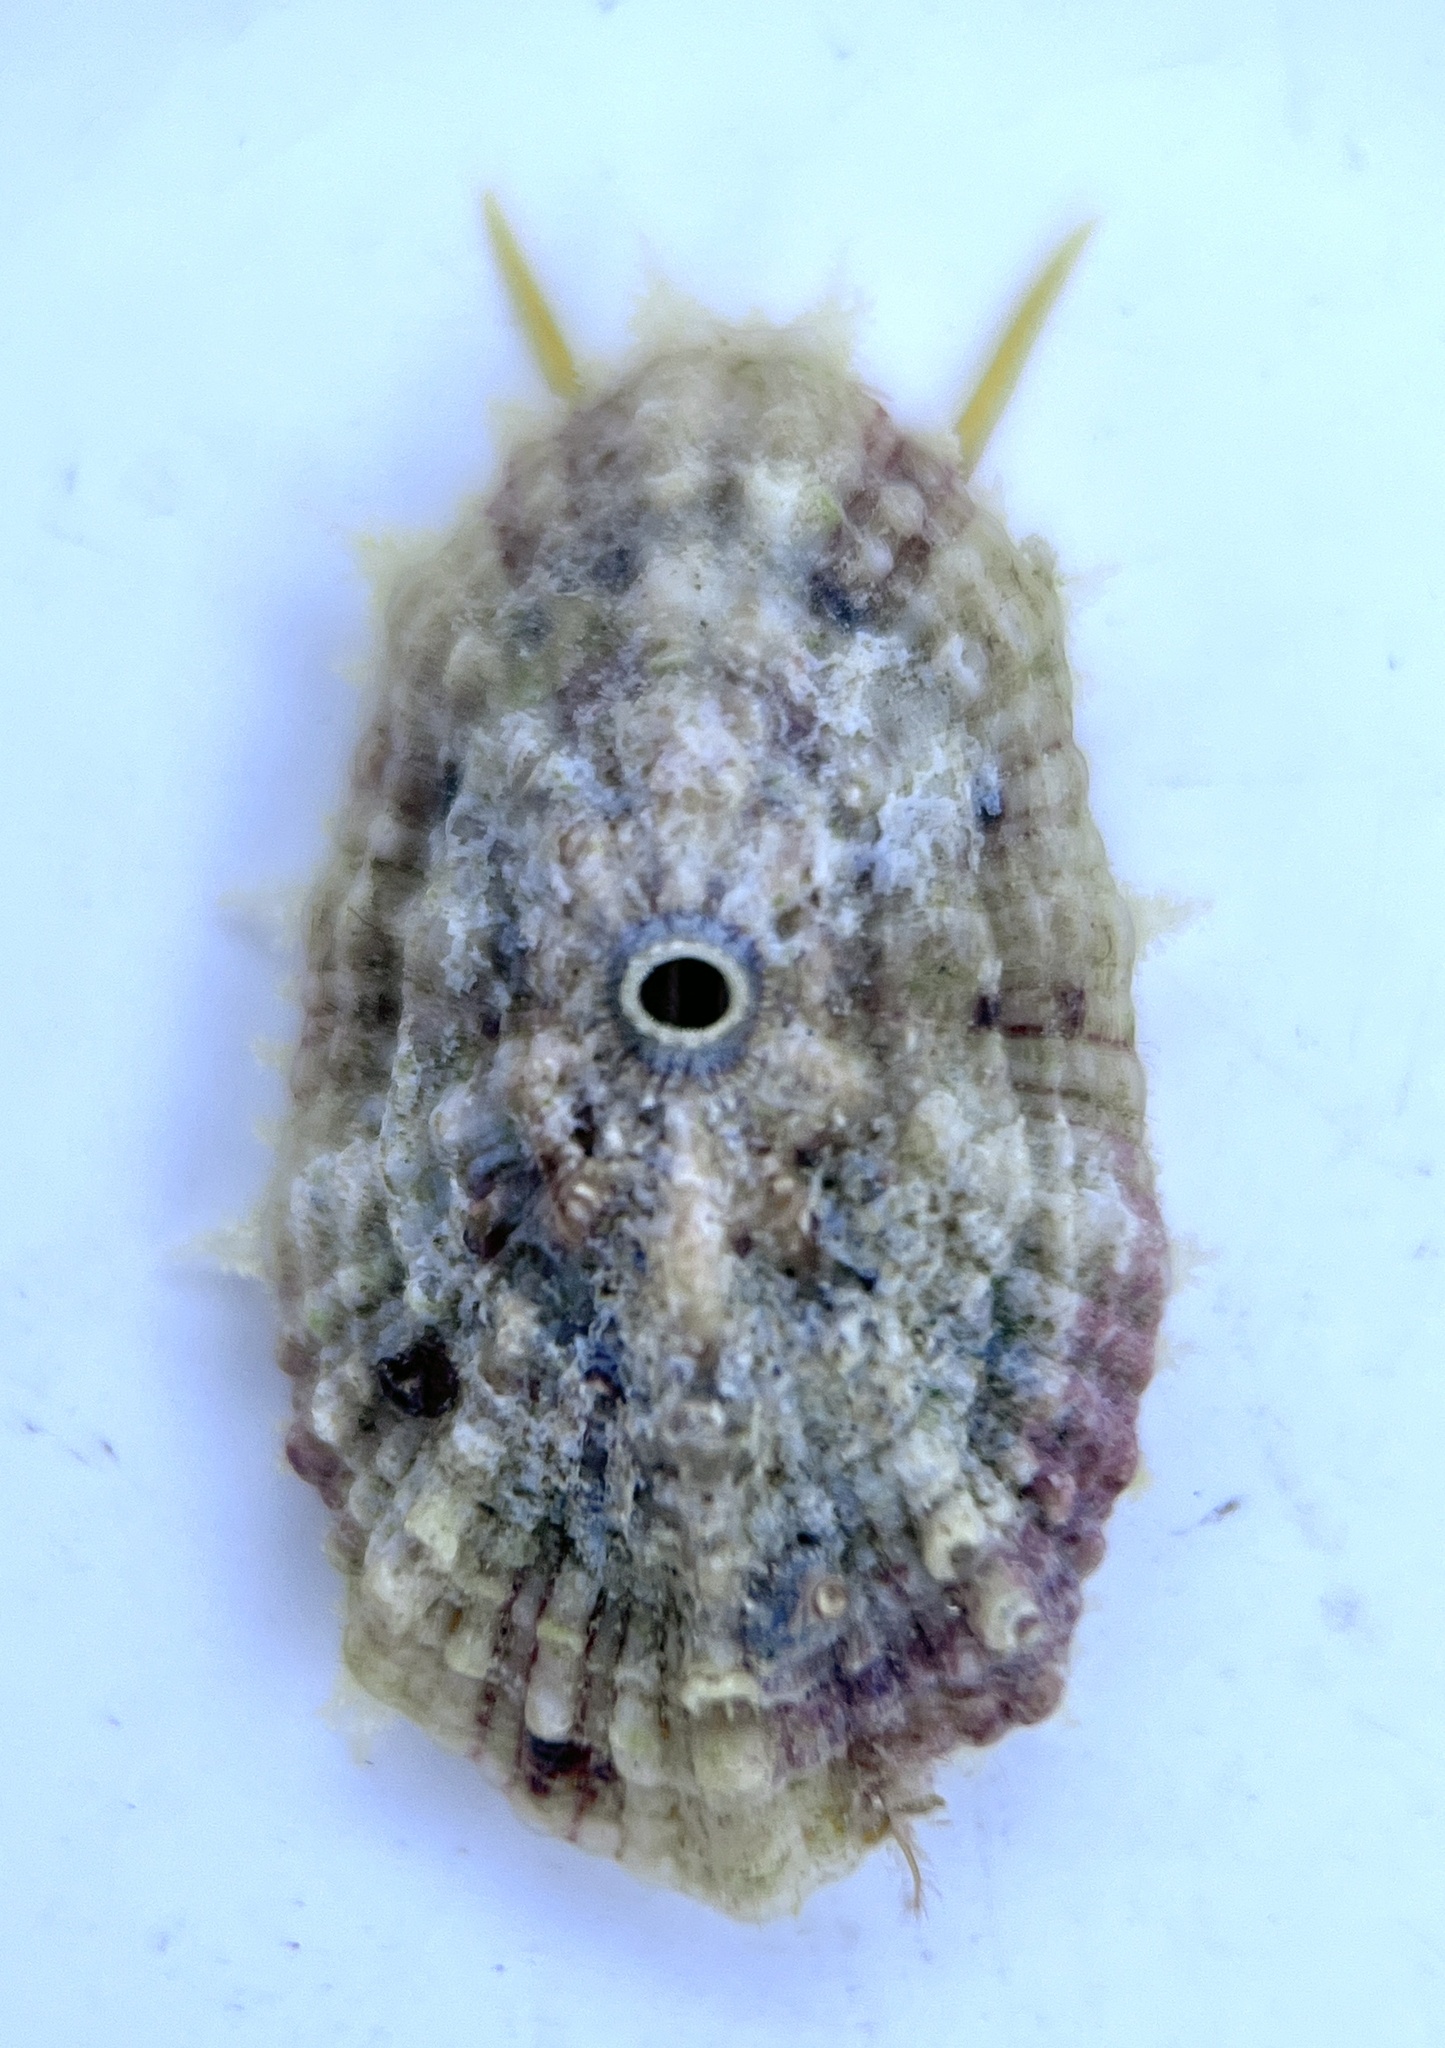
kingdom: Animalia
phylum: Mollusca
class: Gastropoda
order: Lepetellida
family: Fissurellidae
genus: Fissurella
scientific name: Fissurella barbadensis
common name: Barbados keyhole limpet
